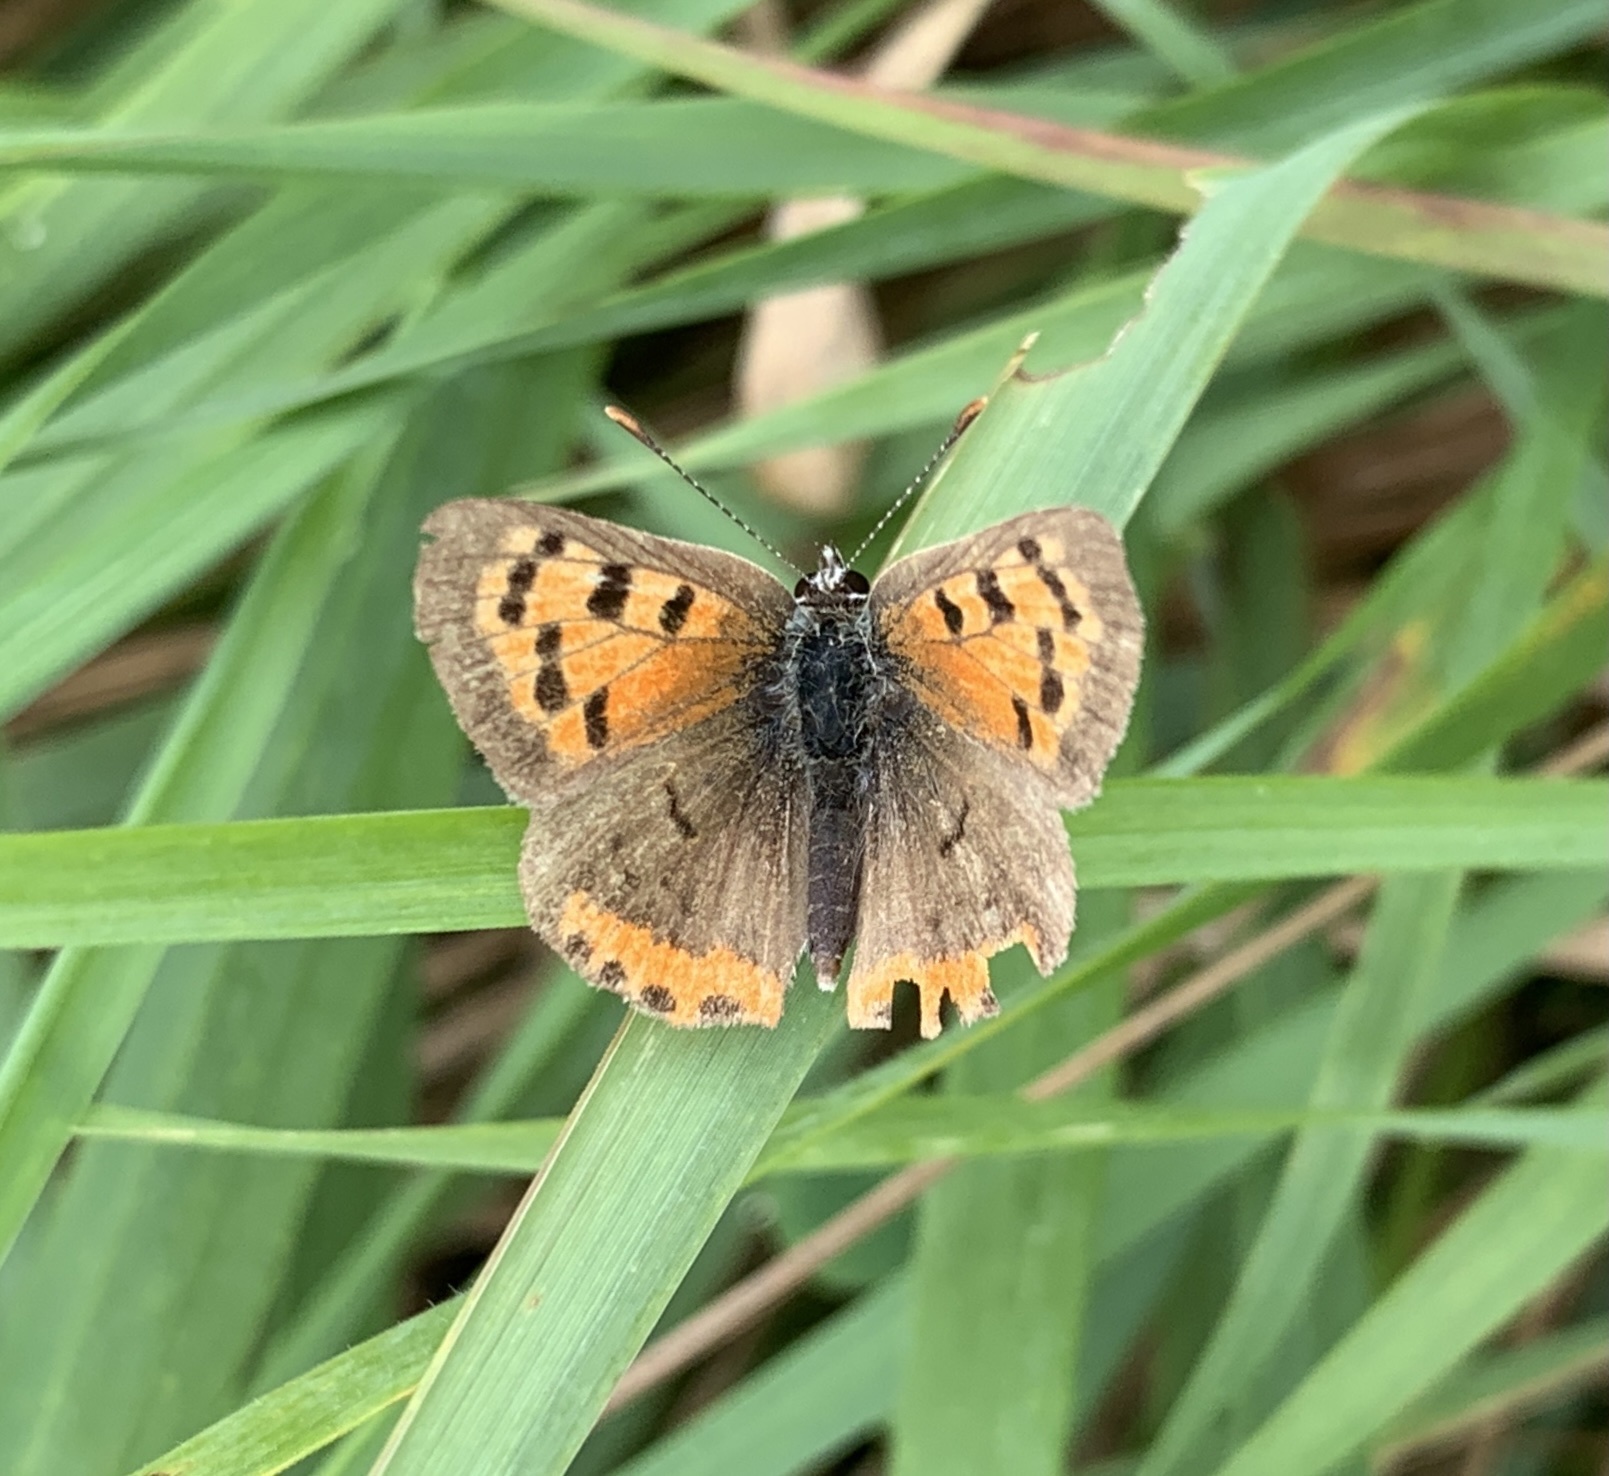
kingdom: Animalia
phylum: Arthropoda
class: Insecta
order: Lepidoptera
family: Lycaenidae
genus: Lycaena
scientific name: Lycaena hypophlaeas
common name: American copper
